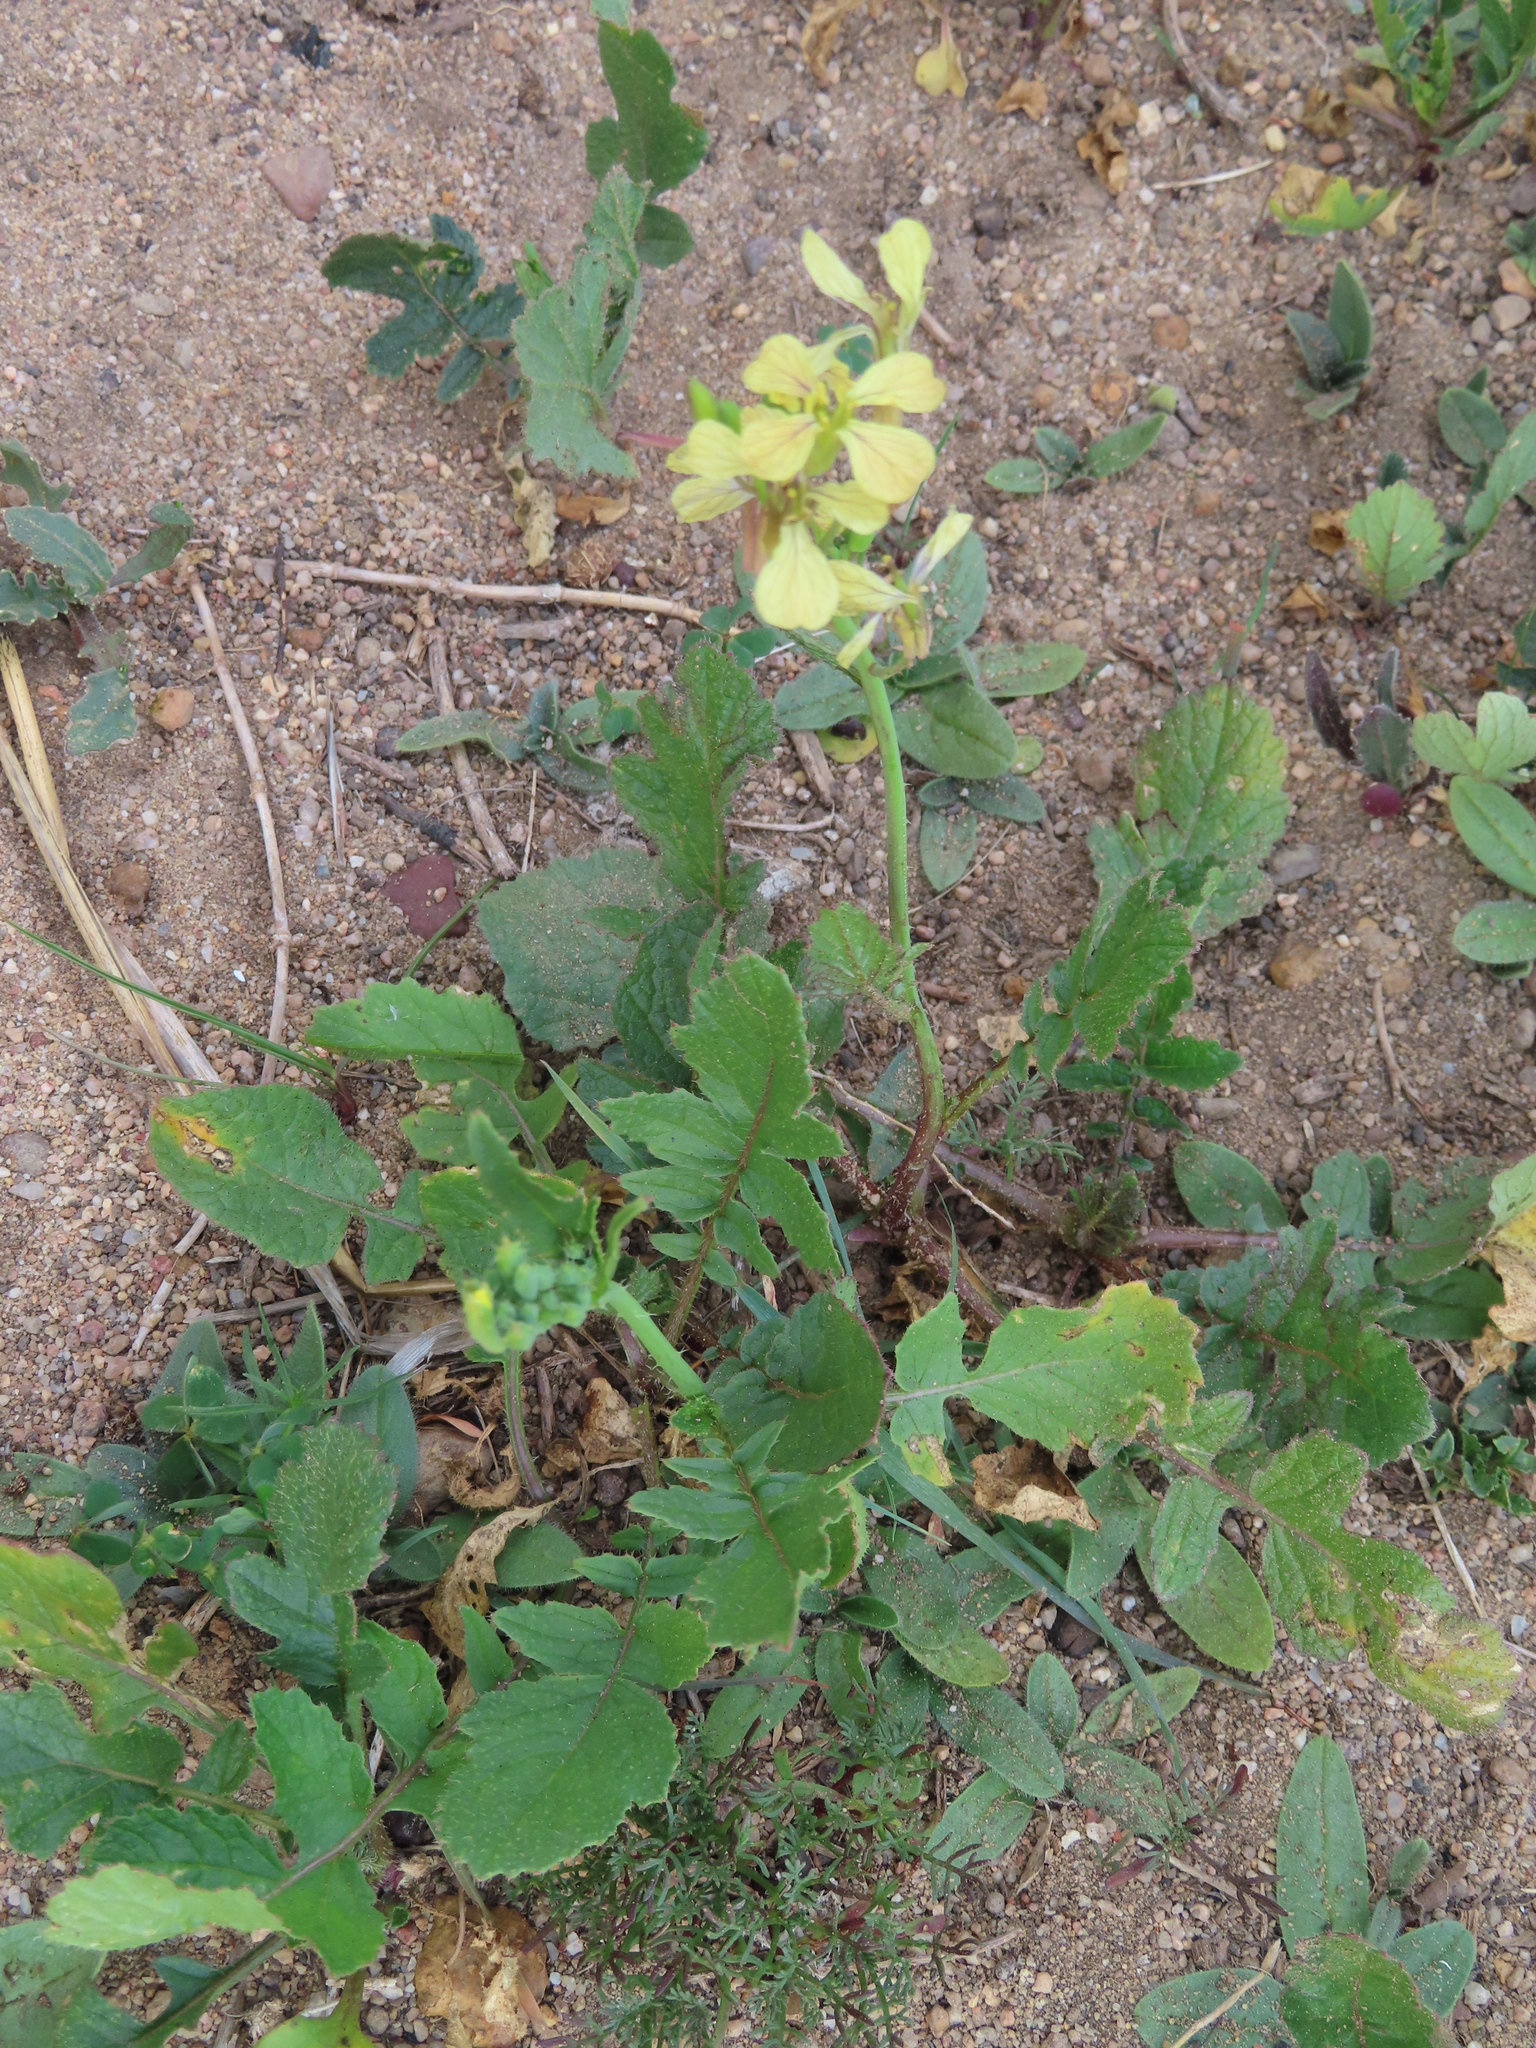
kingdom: Plantae
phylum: Tracheophyta
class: Magnoliopsida
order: Brassicales
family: Brassicaceae
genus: Raphanus
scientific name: Raphanus raphanistrum
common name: Wild radish
